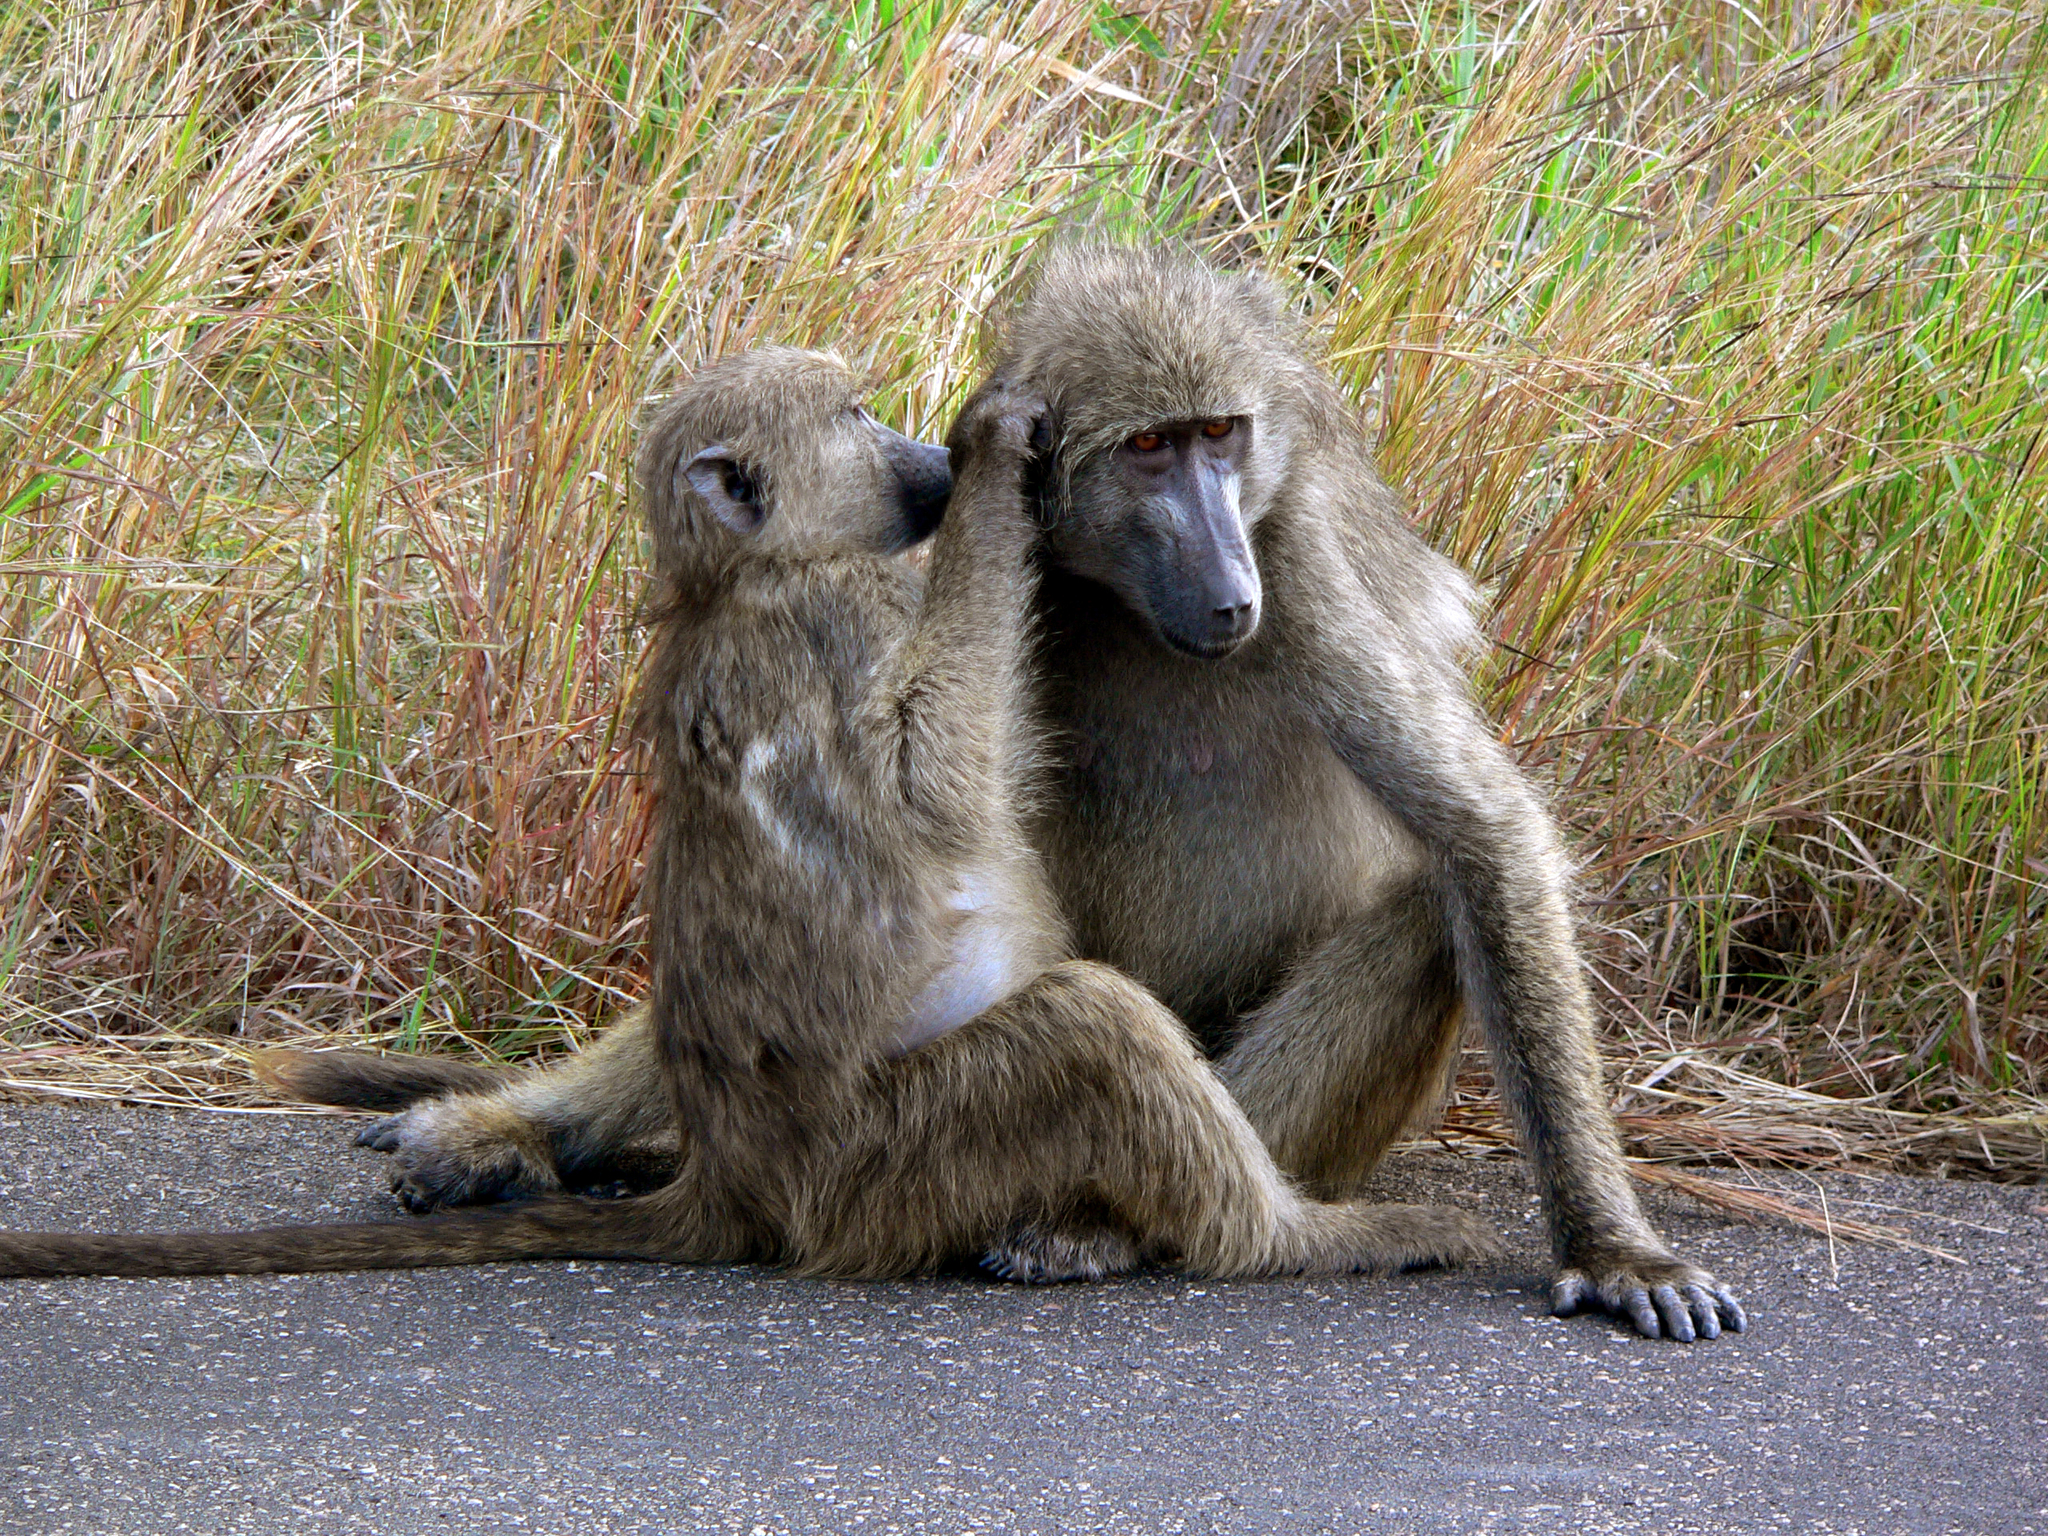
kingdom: Animalia
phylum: Chordata
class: Mammalia
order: Primates
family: Cercopithecidae
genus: Papio
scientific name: Papio ursinus
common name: Chacma baboon
